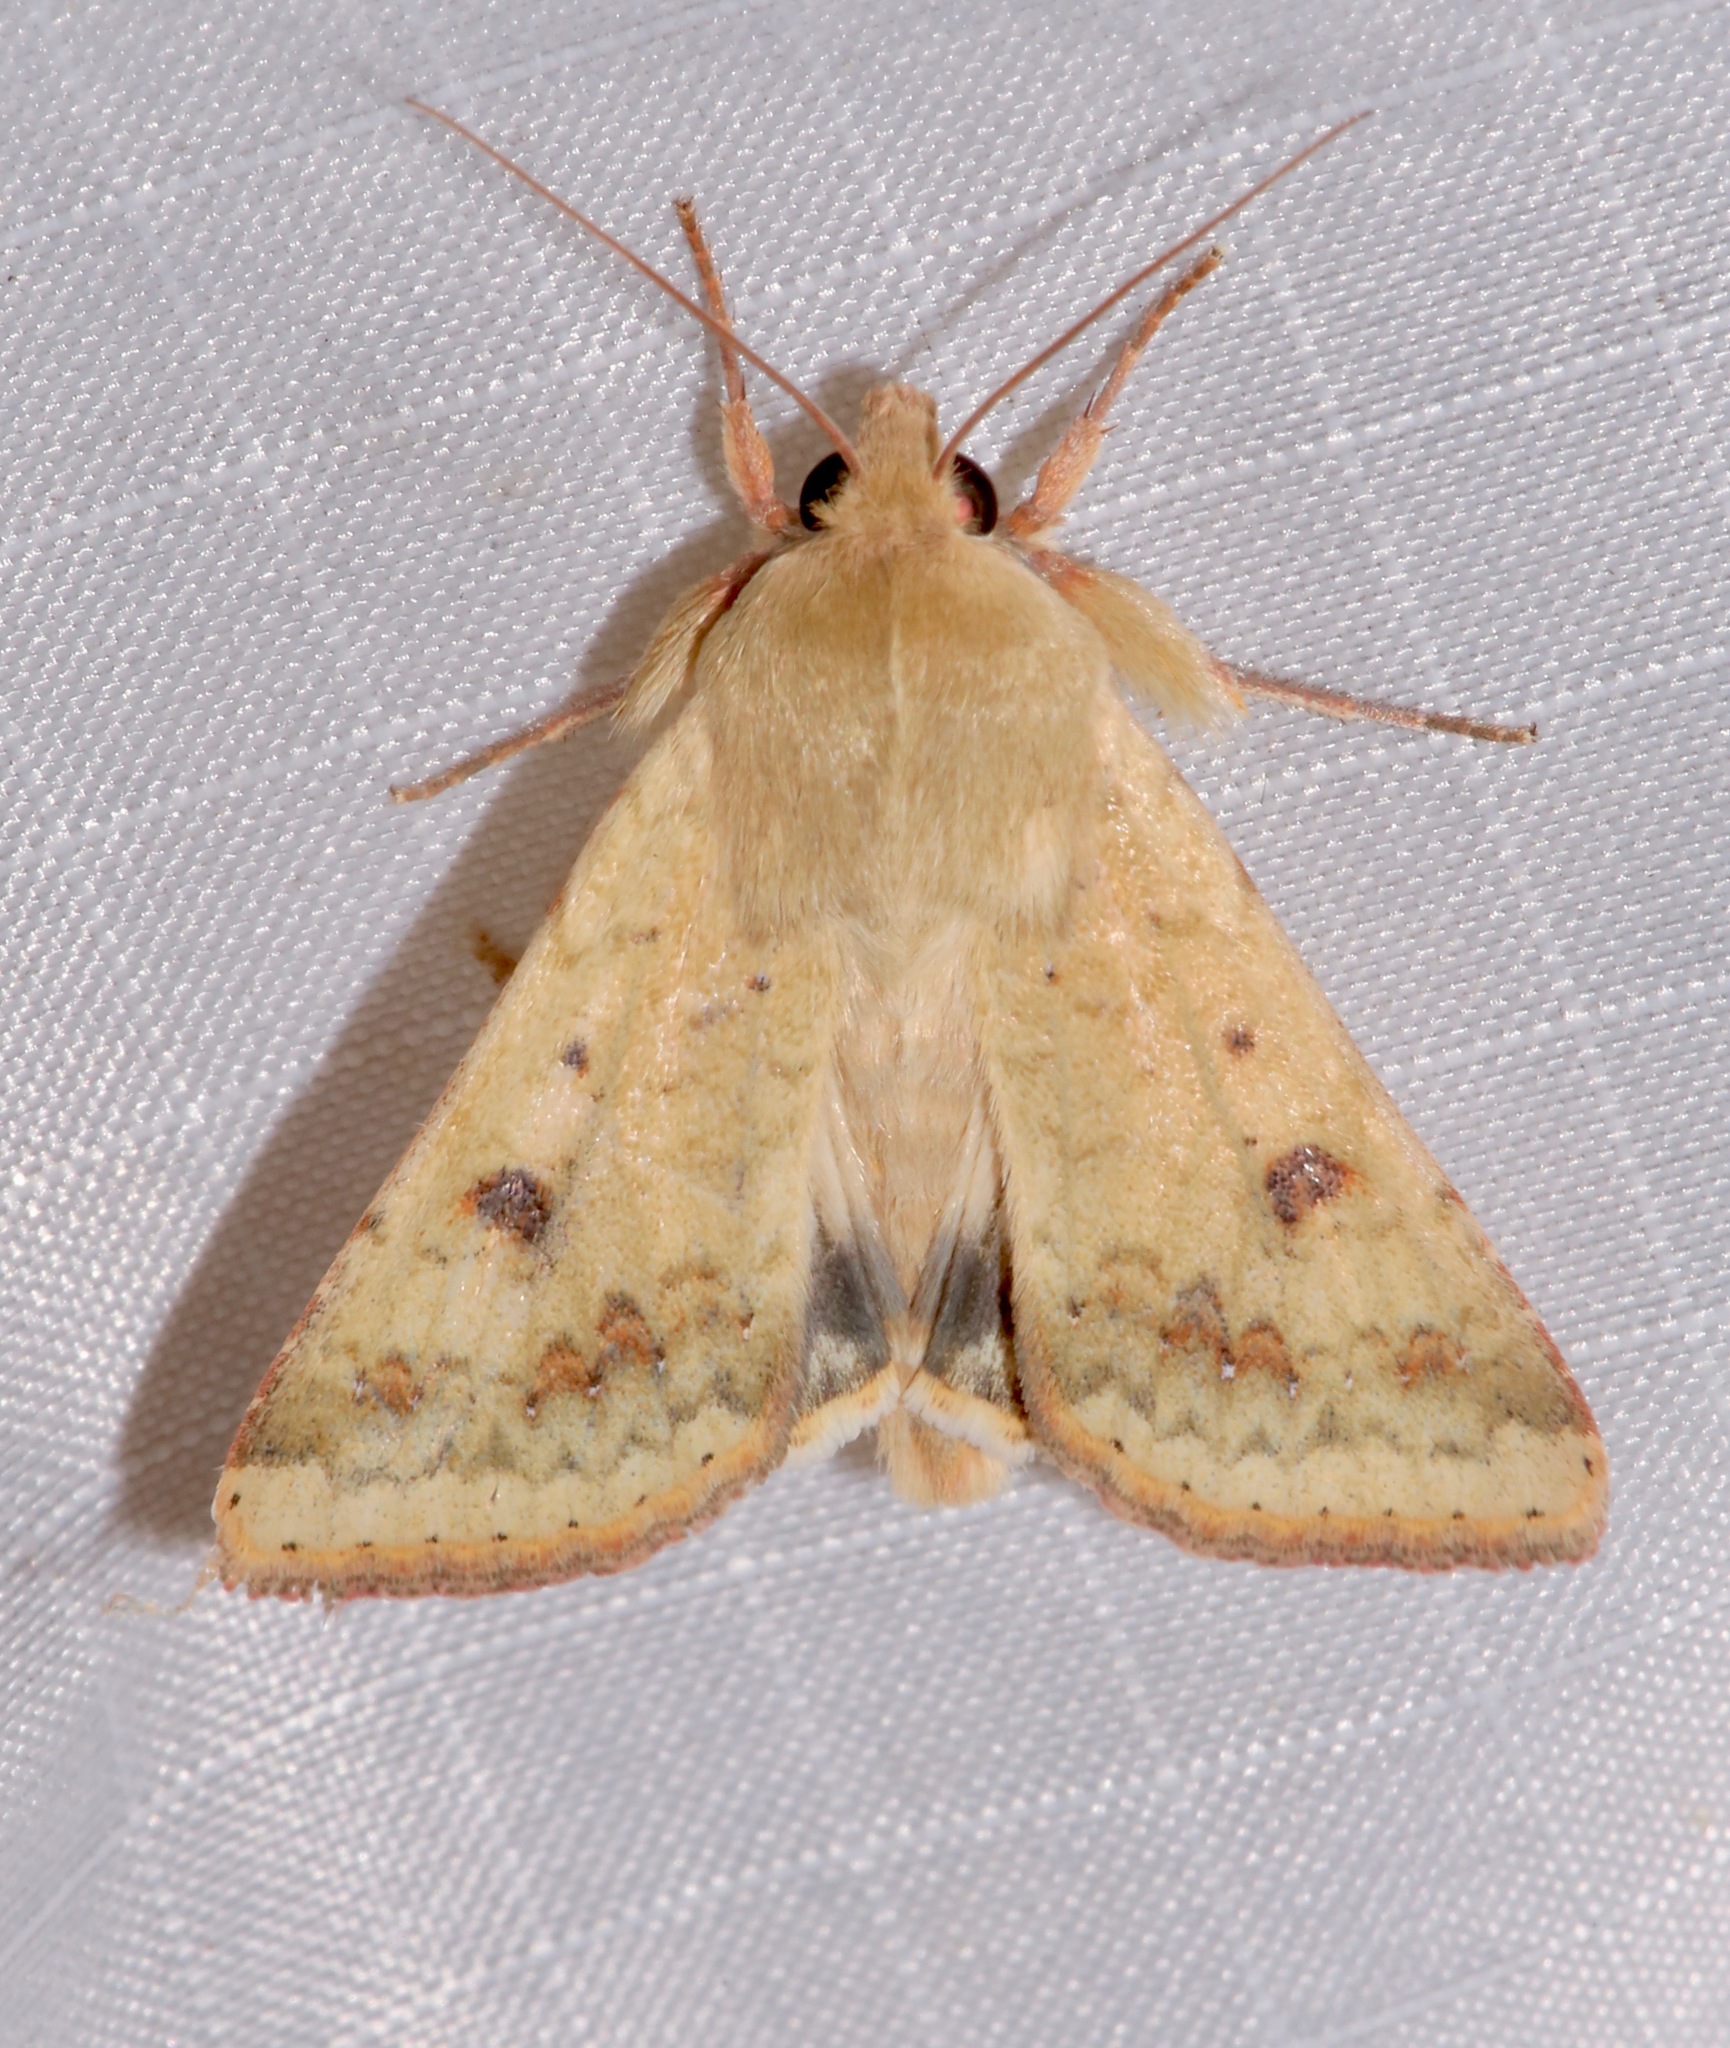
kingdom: Animalia
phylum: Arthropoda
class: Insecta
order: Lepidoptera
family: Noctuidae
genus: Helicoverpa
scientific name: Helicoverpa zea
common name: Bollworm
